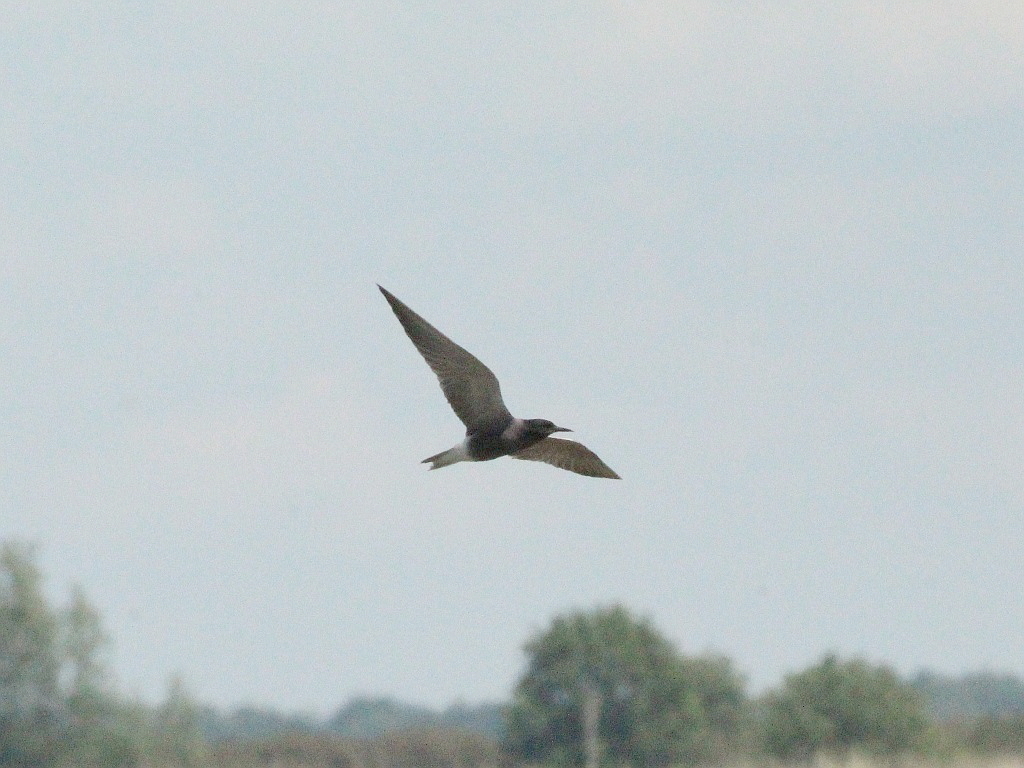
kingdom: Animalia
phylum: Chordata
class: Aves
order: Charadriiformes
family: Laridae
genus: Chlidonias
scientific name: Chlidonias niger
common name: Black tern
